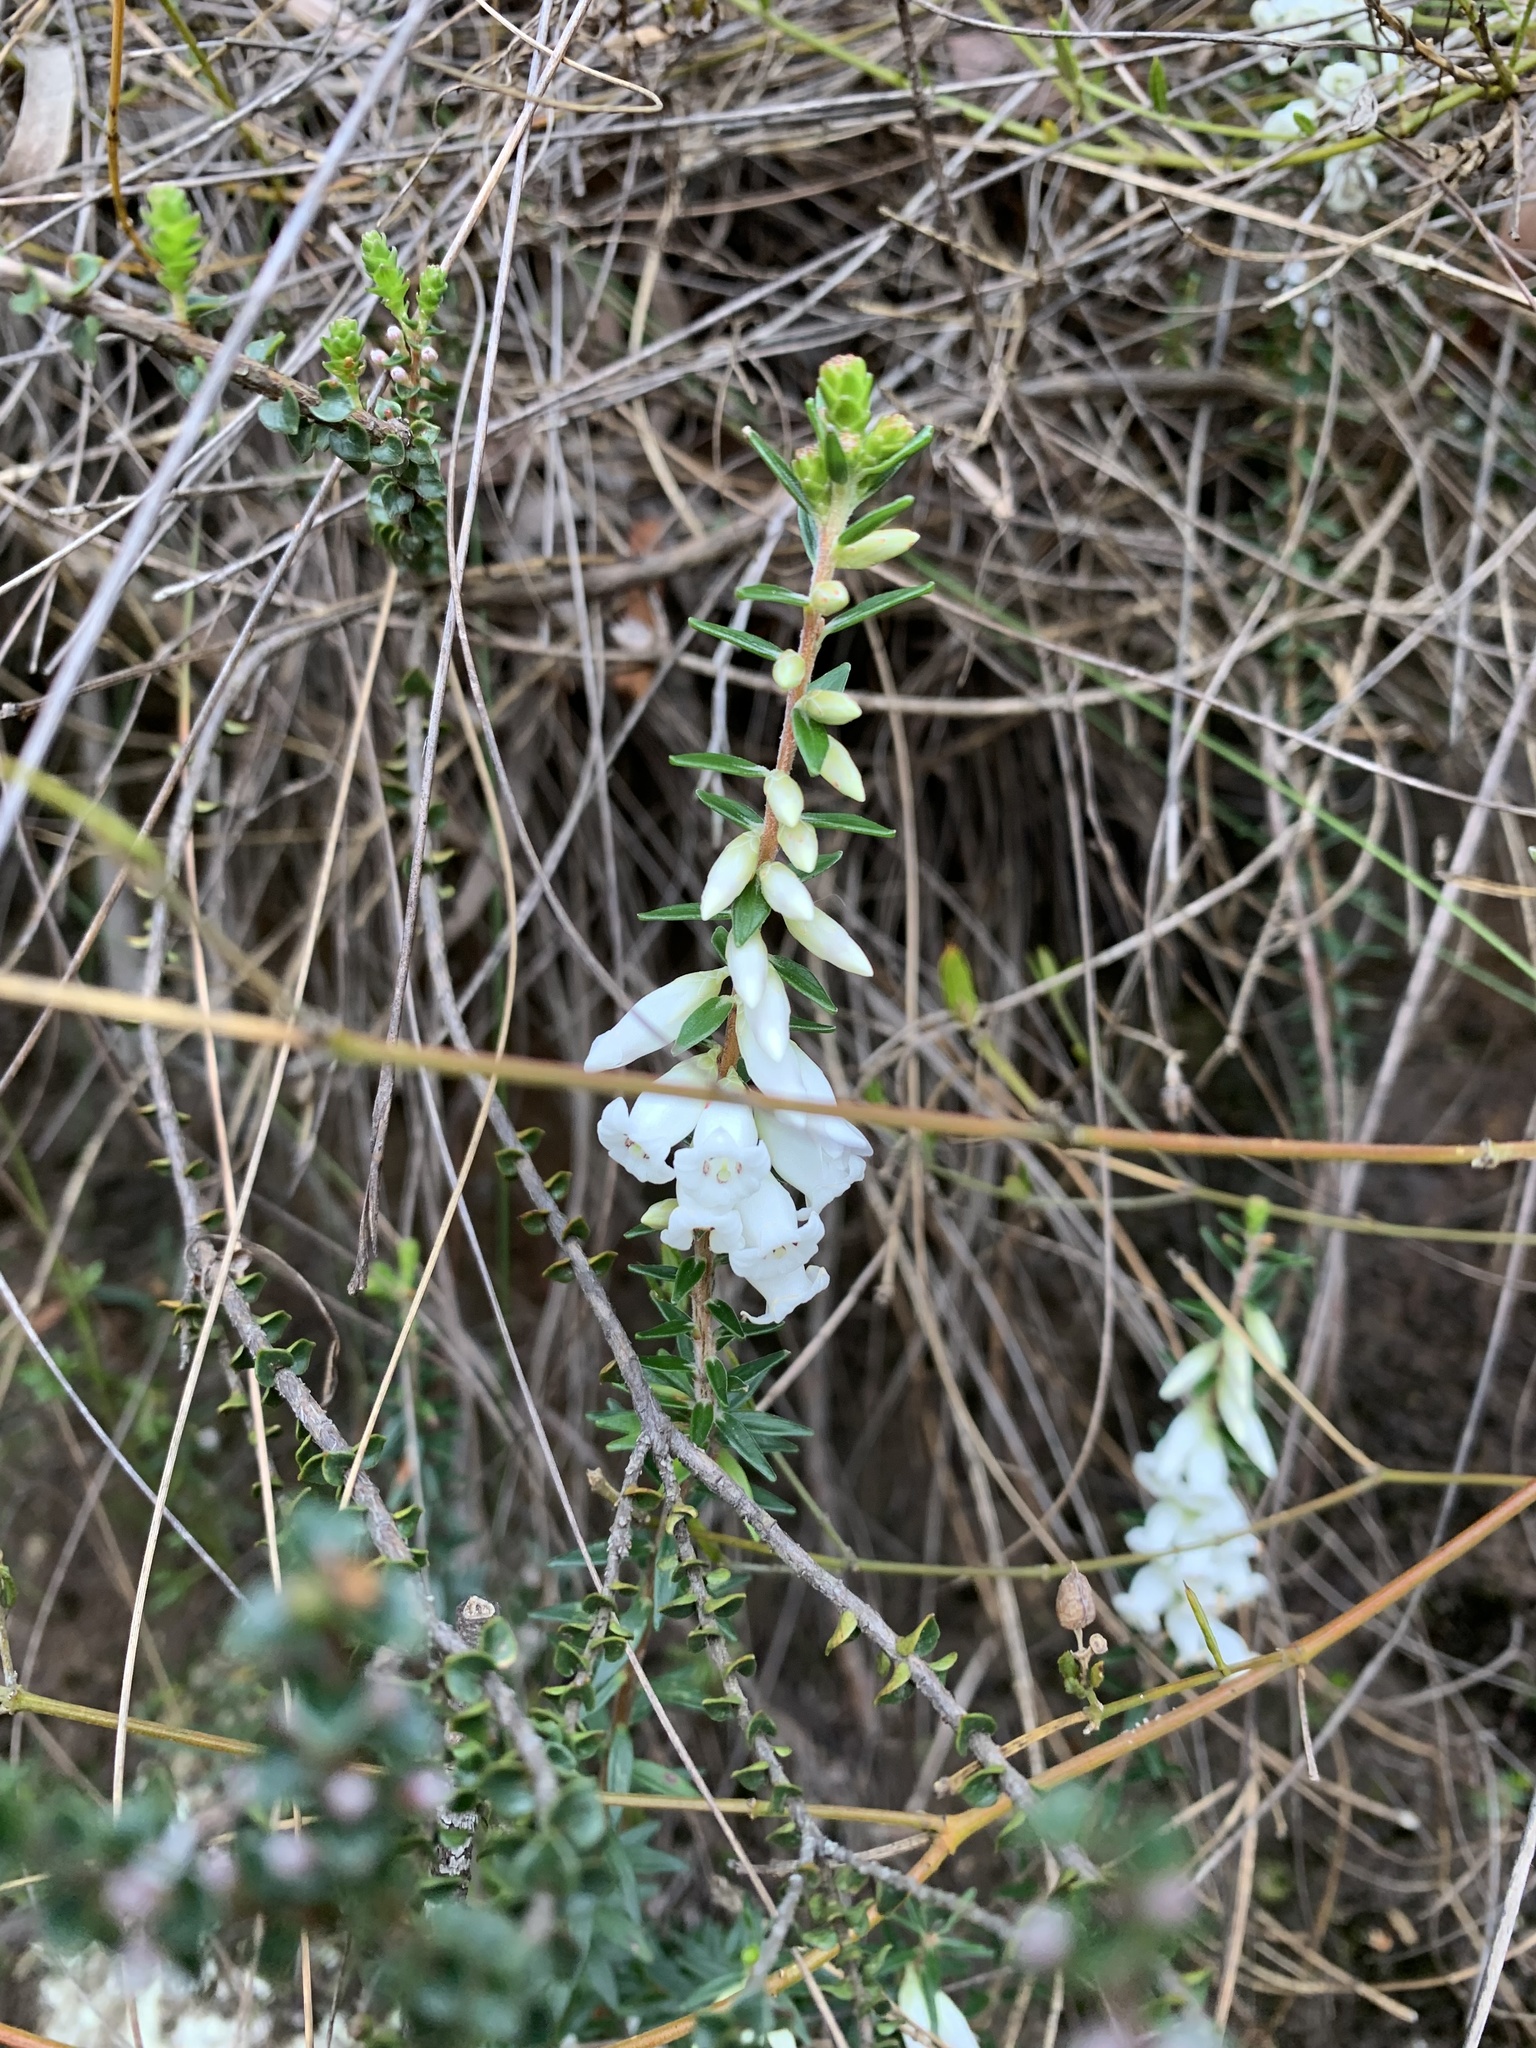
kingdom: Plantae
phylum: Tracheophyta
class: Magnoliopsida
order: Ericales
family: Ericaceae
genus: Epacris
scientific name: Epacris obtusifolia
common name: Blunt-leaf australian-heath
